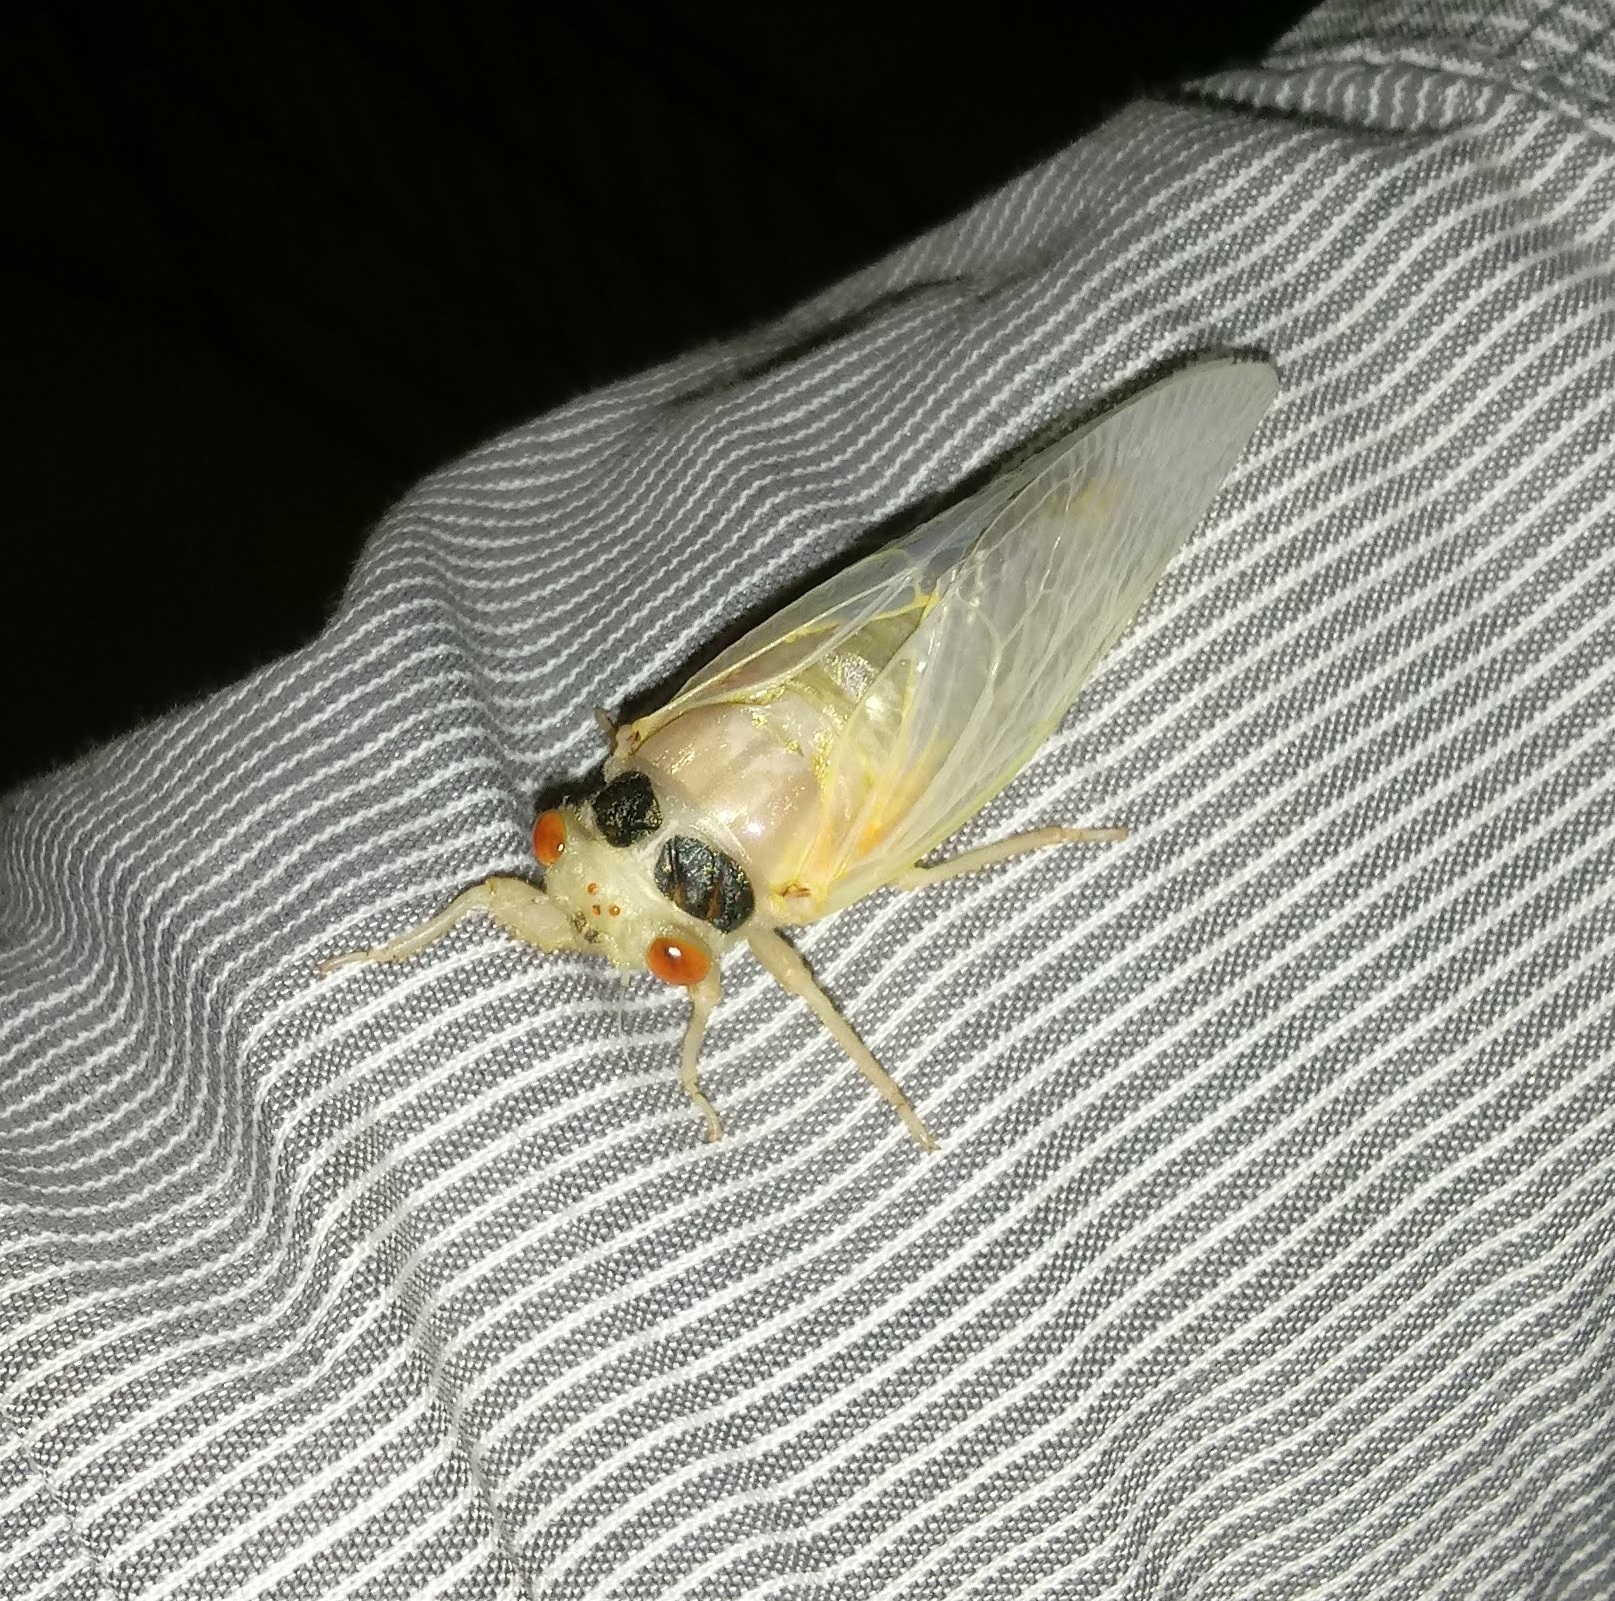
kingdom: Animalia
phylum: Arthropoda
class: Insecta
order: Hemiptera
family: Cicadidae
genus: Magicicada
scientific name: Magicicada cassini
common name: Cassin's 17-year cicada
